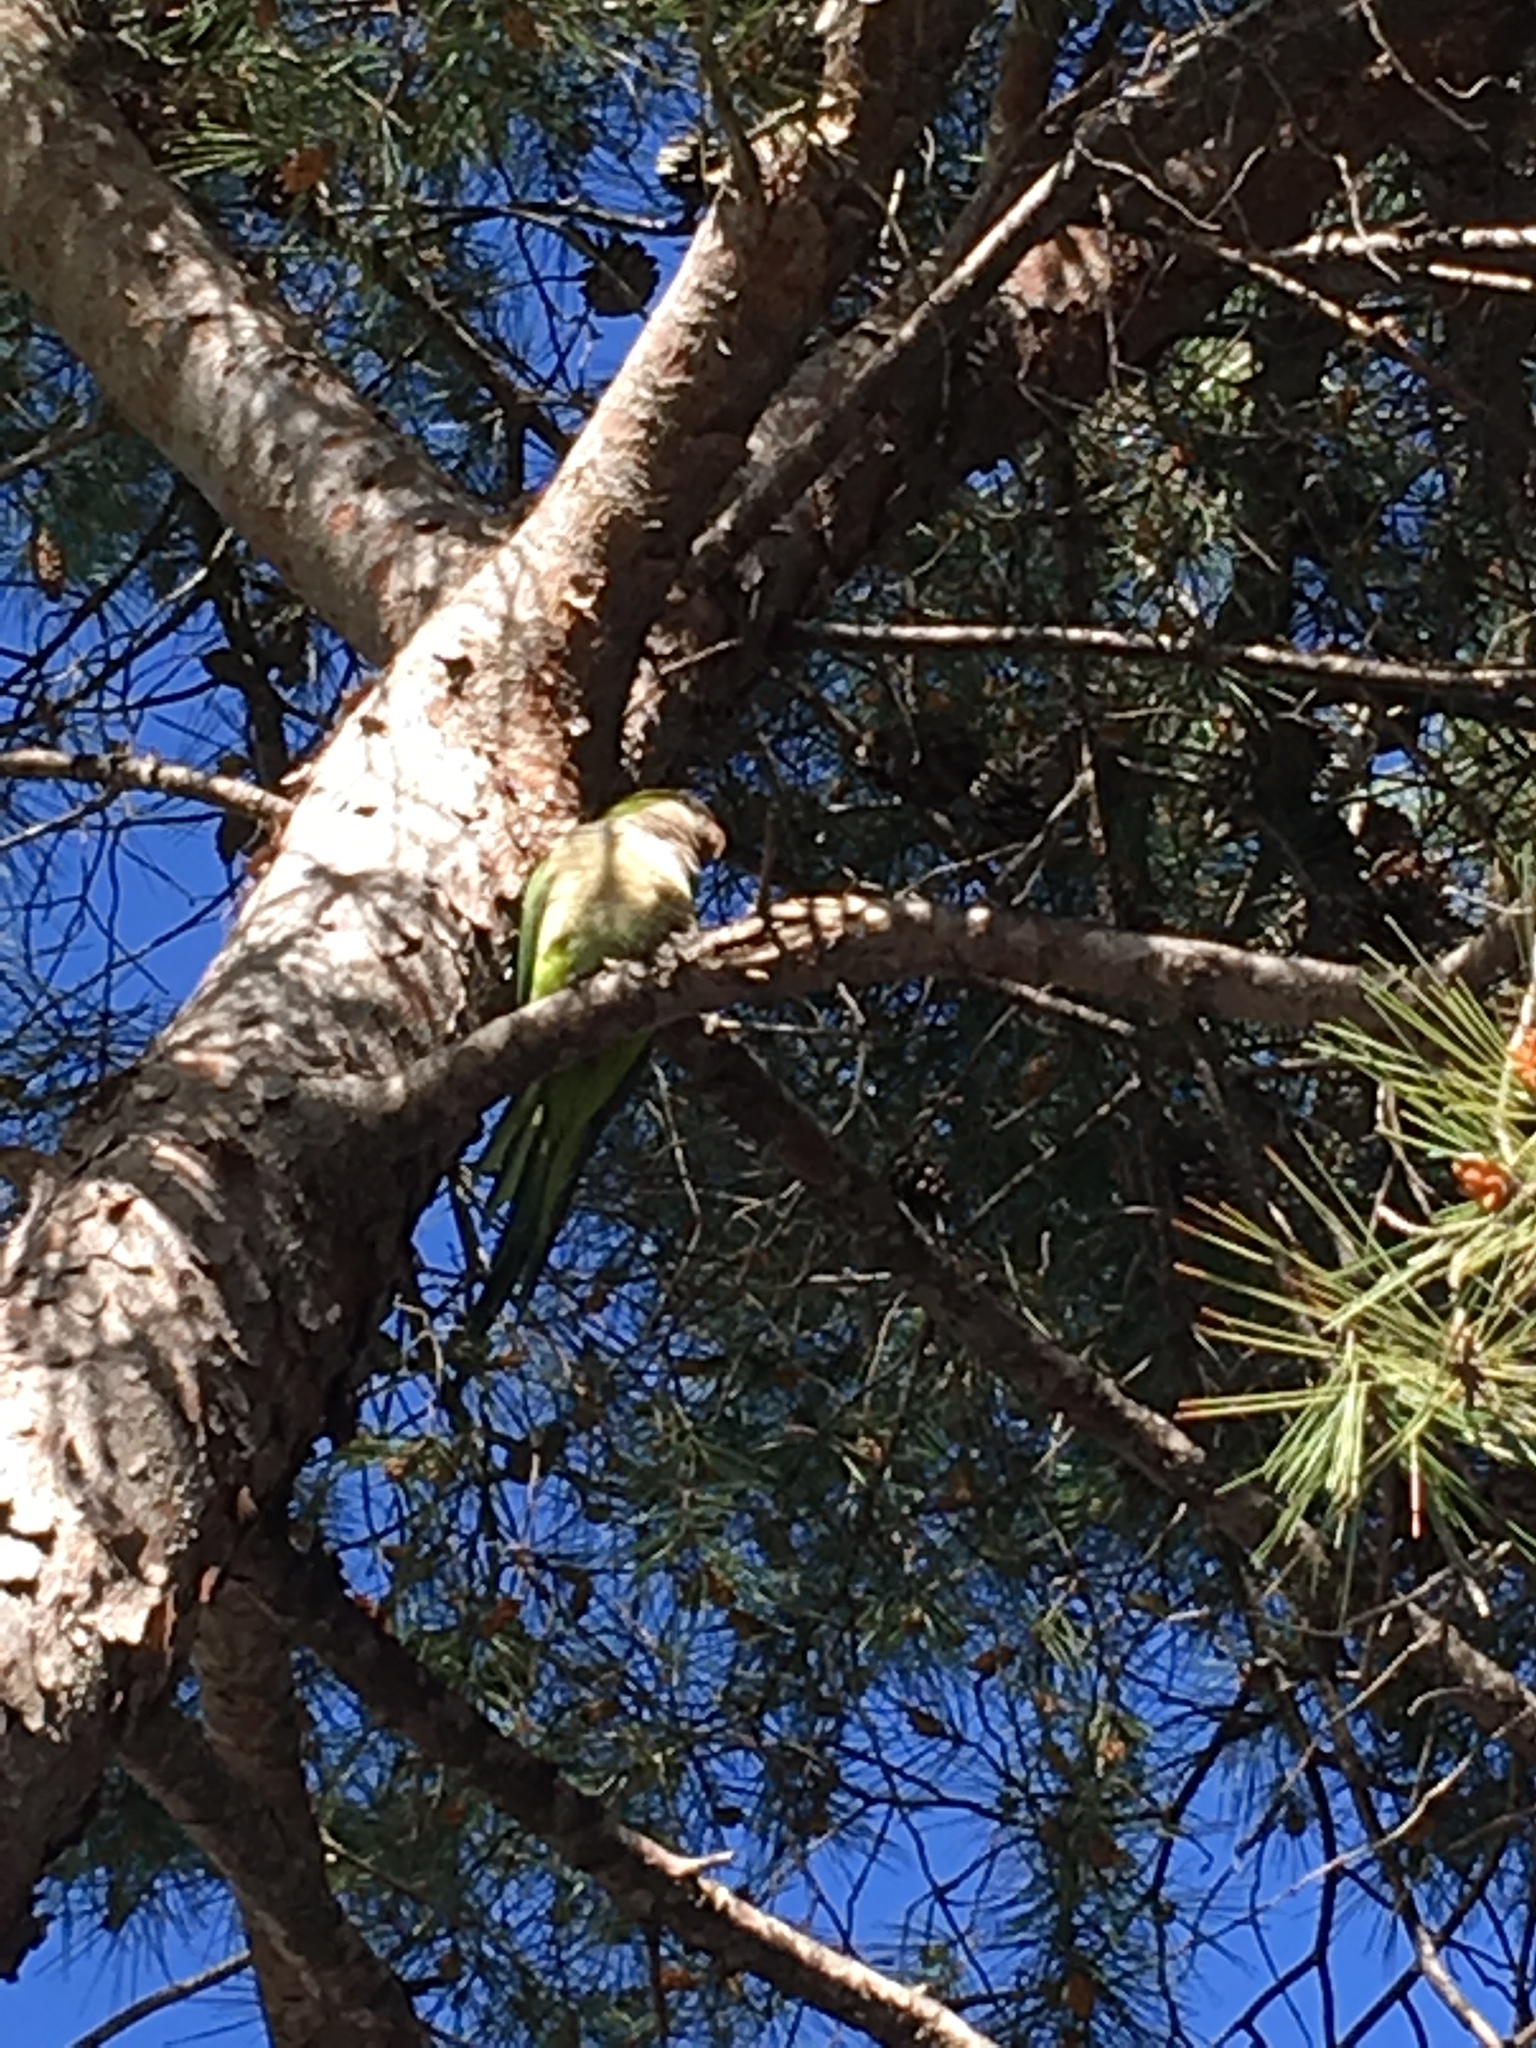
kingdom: Animalia
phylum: Chordata
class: Aves
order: Psittaciformes
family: Psittacidae
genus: Myiopsitta
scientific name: Myiopsitta monachus
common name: Monk parakeet
